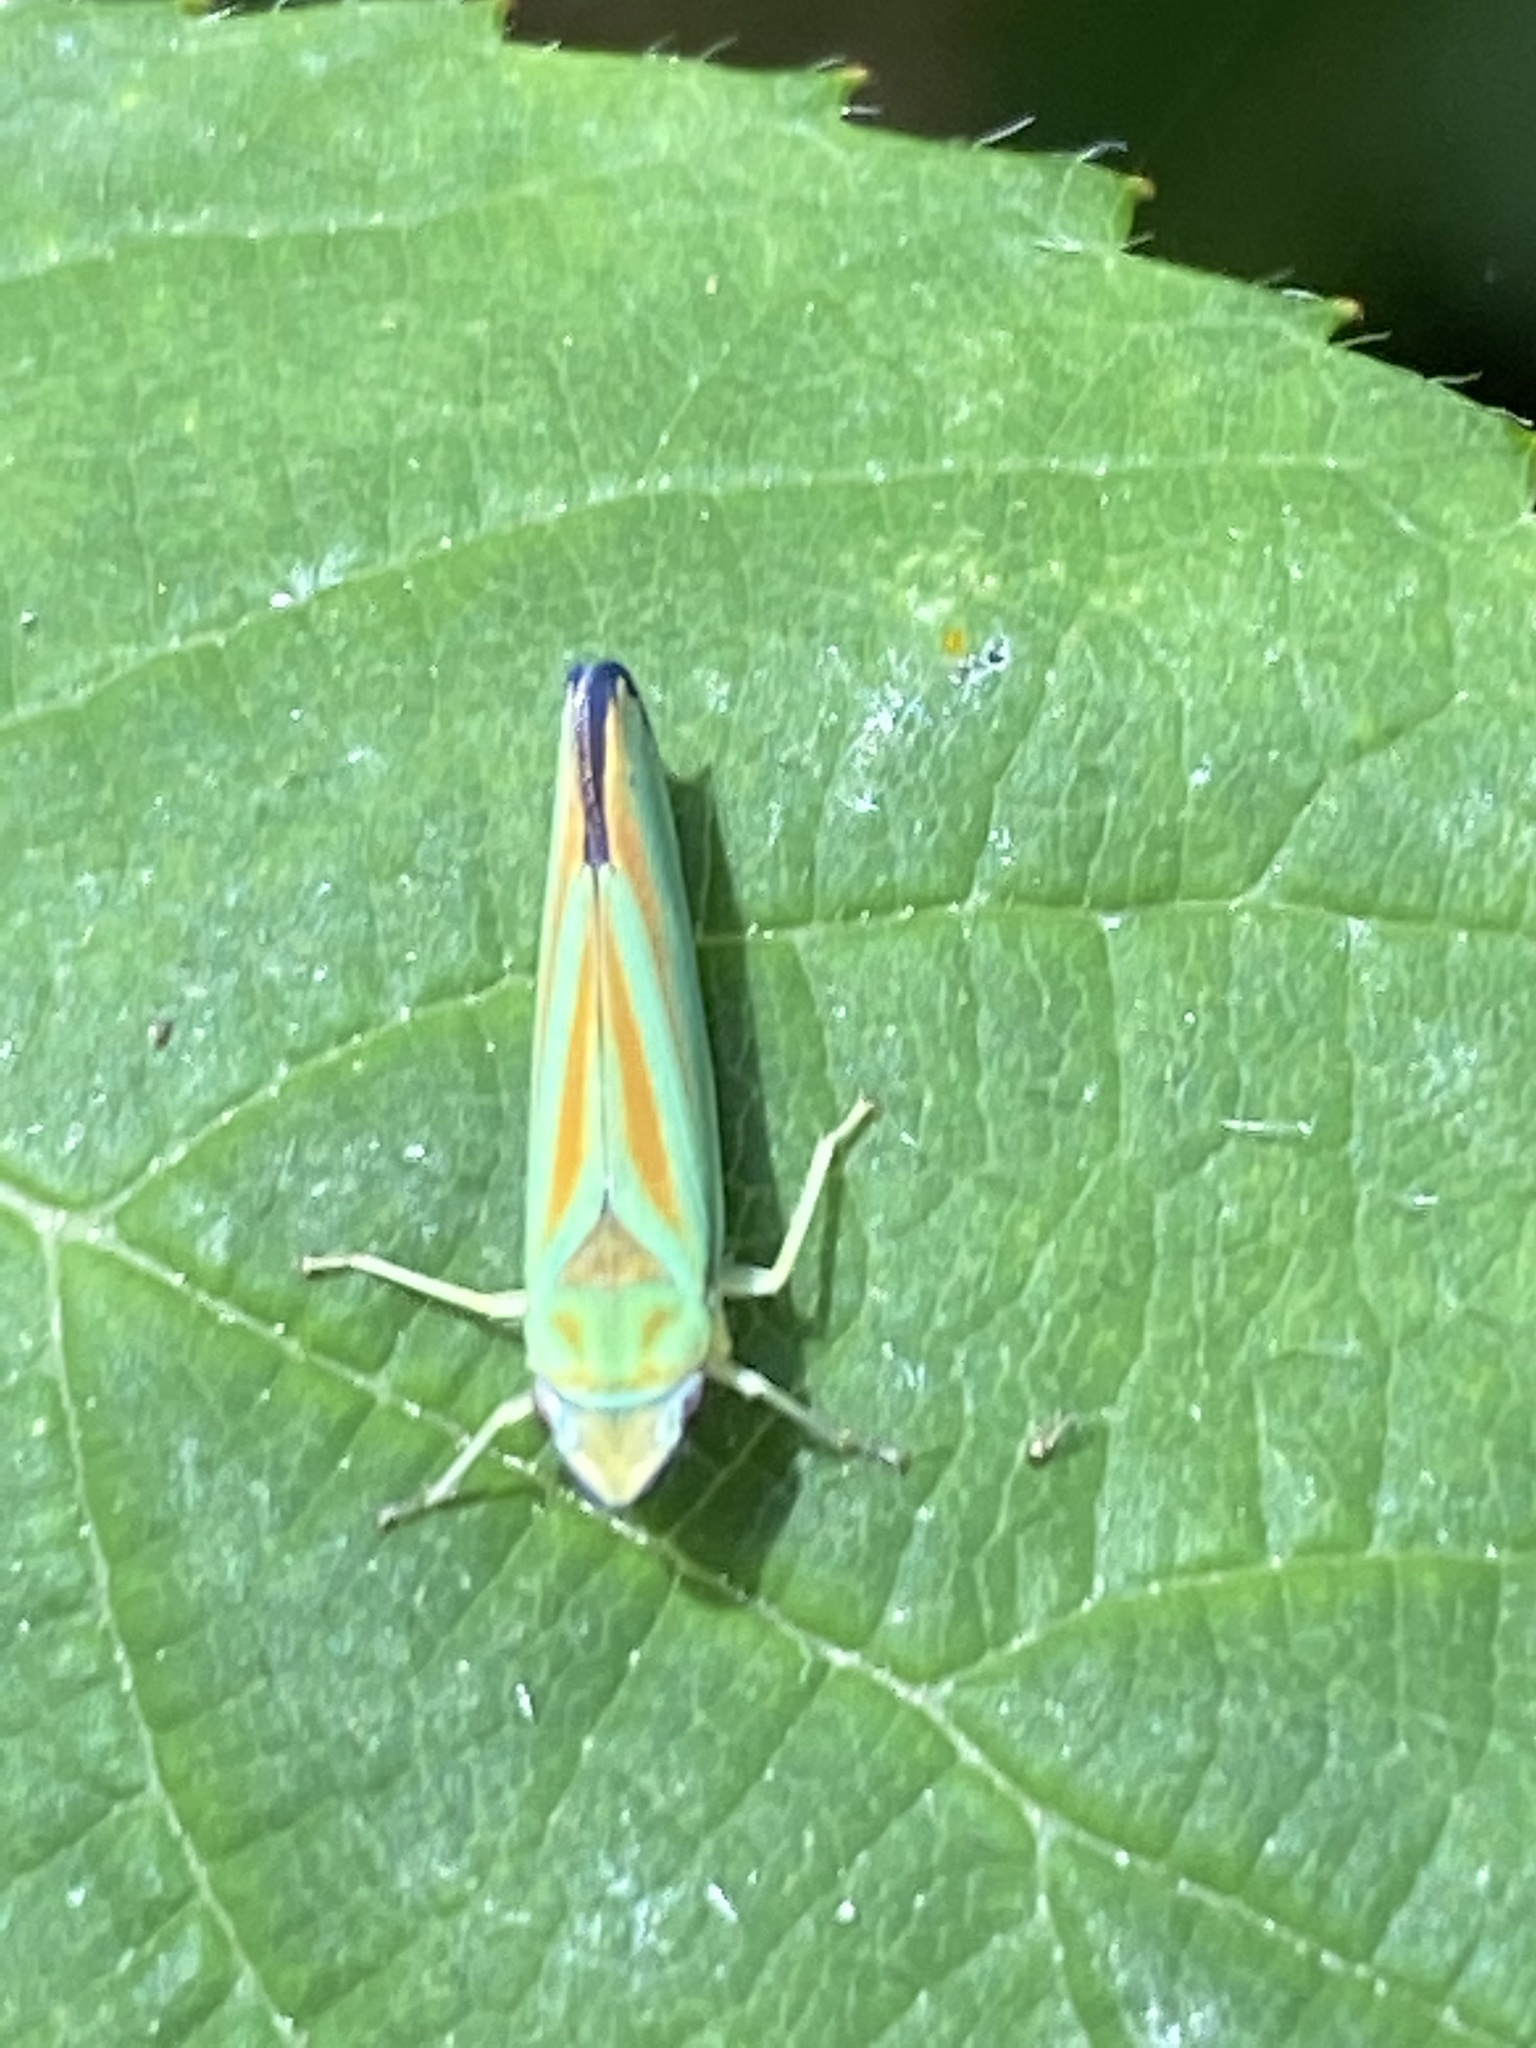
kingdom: Animalia
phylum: Arthropoda
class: Insecta
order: Hemiptera
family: Cicadellidae
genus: Graphocephala
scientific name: Graphocephala fennahi
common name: Rhododendron leafhopper
